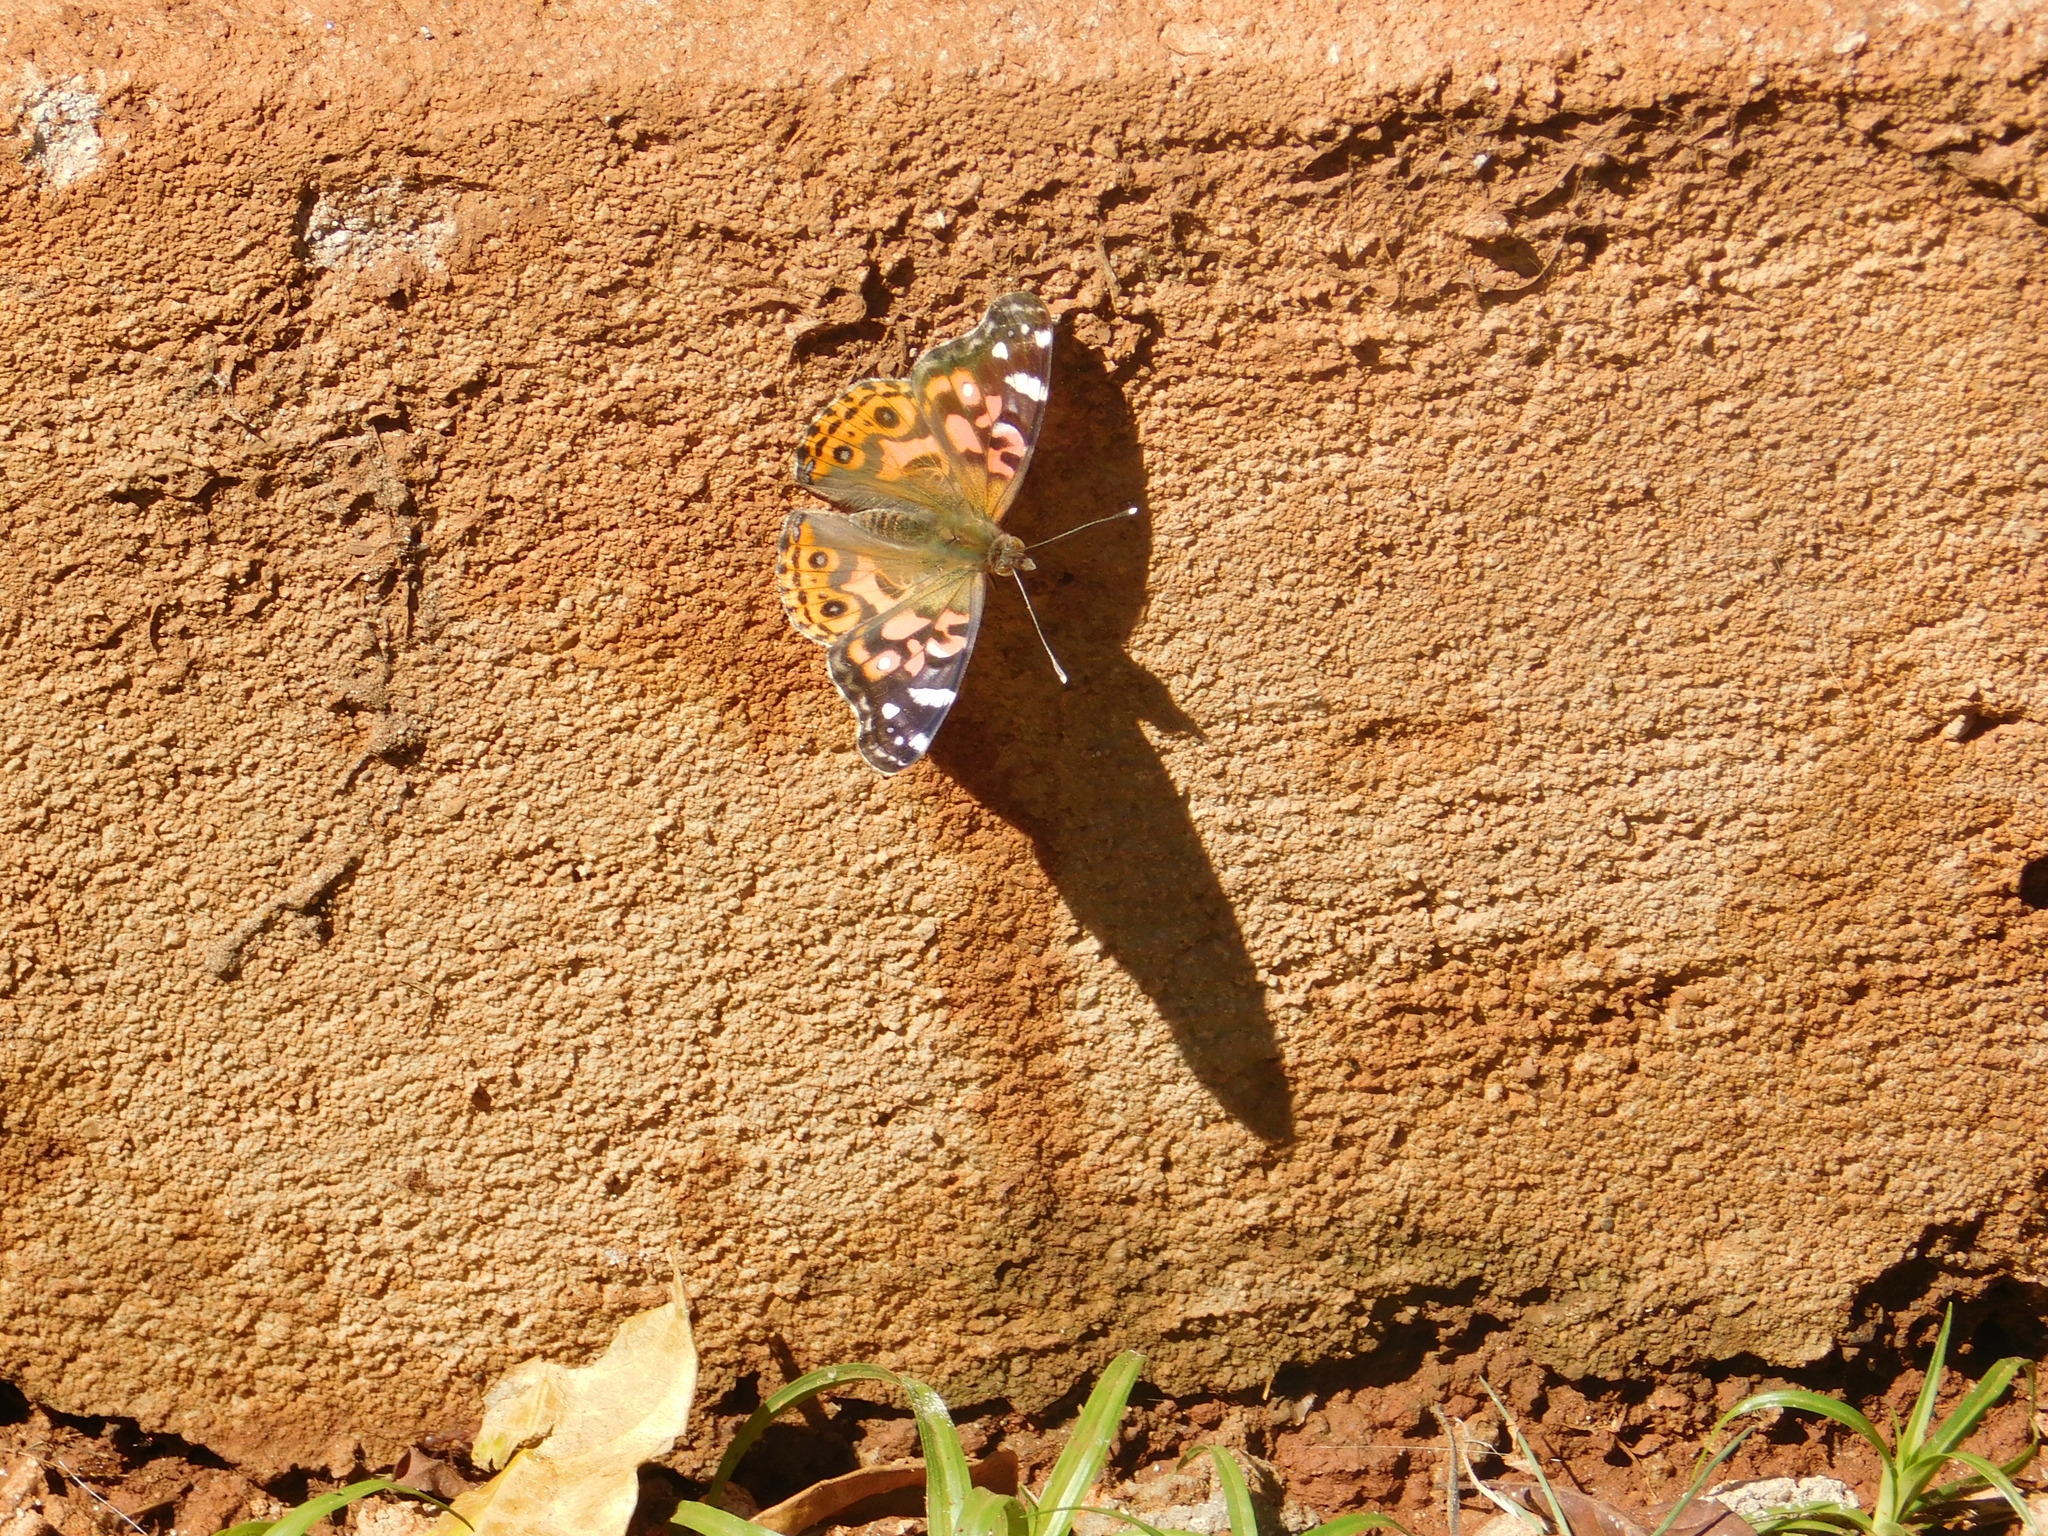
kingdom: Animalia
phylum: Arthropoda
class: Insecta
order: Lepidoptera
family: Nymphalidae
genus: Vanessa
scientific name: Vanessa braziliensis
